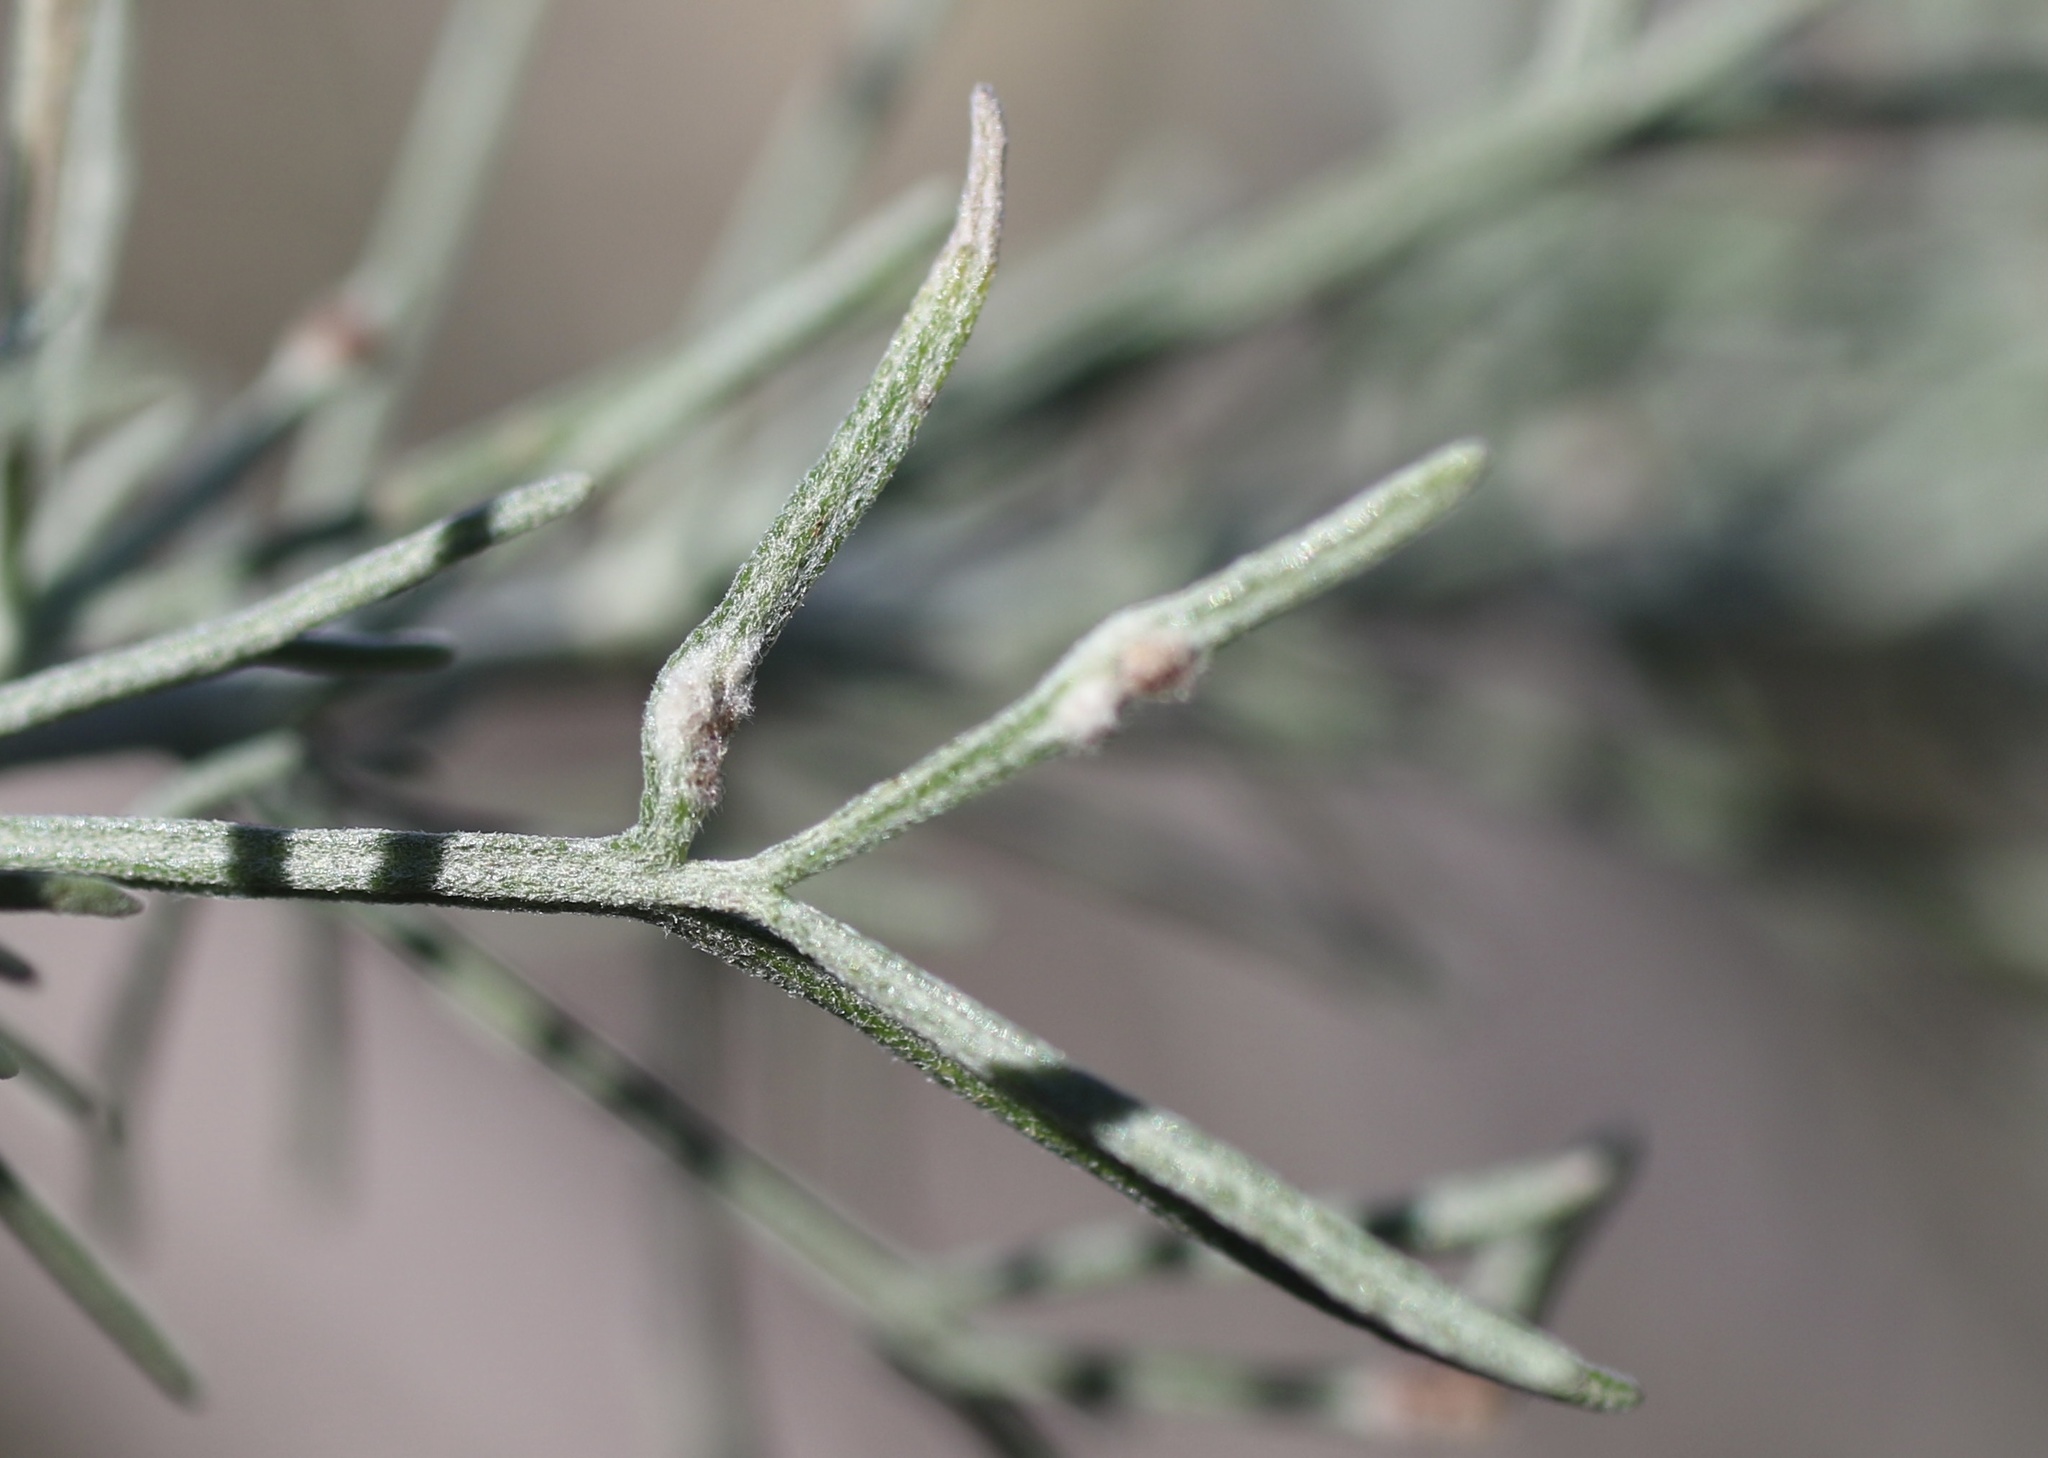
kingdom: Animalia
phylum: Arthropoda
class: Arachnida
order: Trombidiformes
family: Eriophyidae
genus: Aceria
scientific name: Aceria
